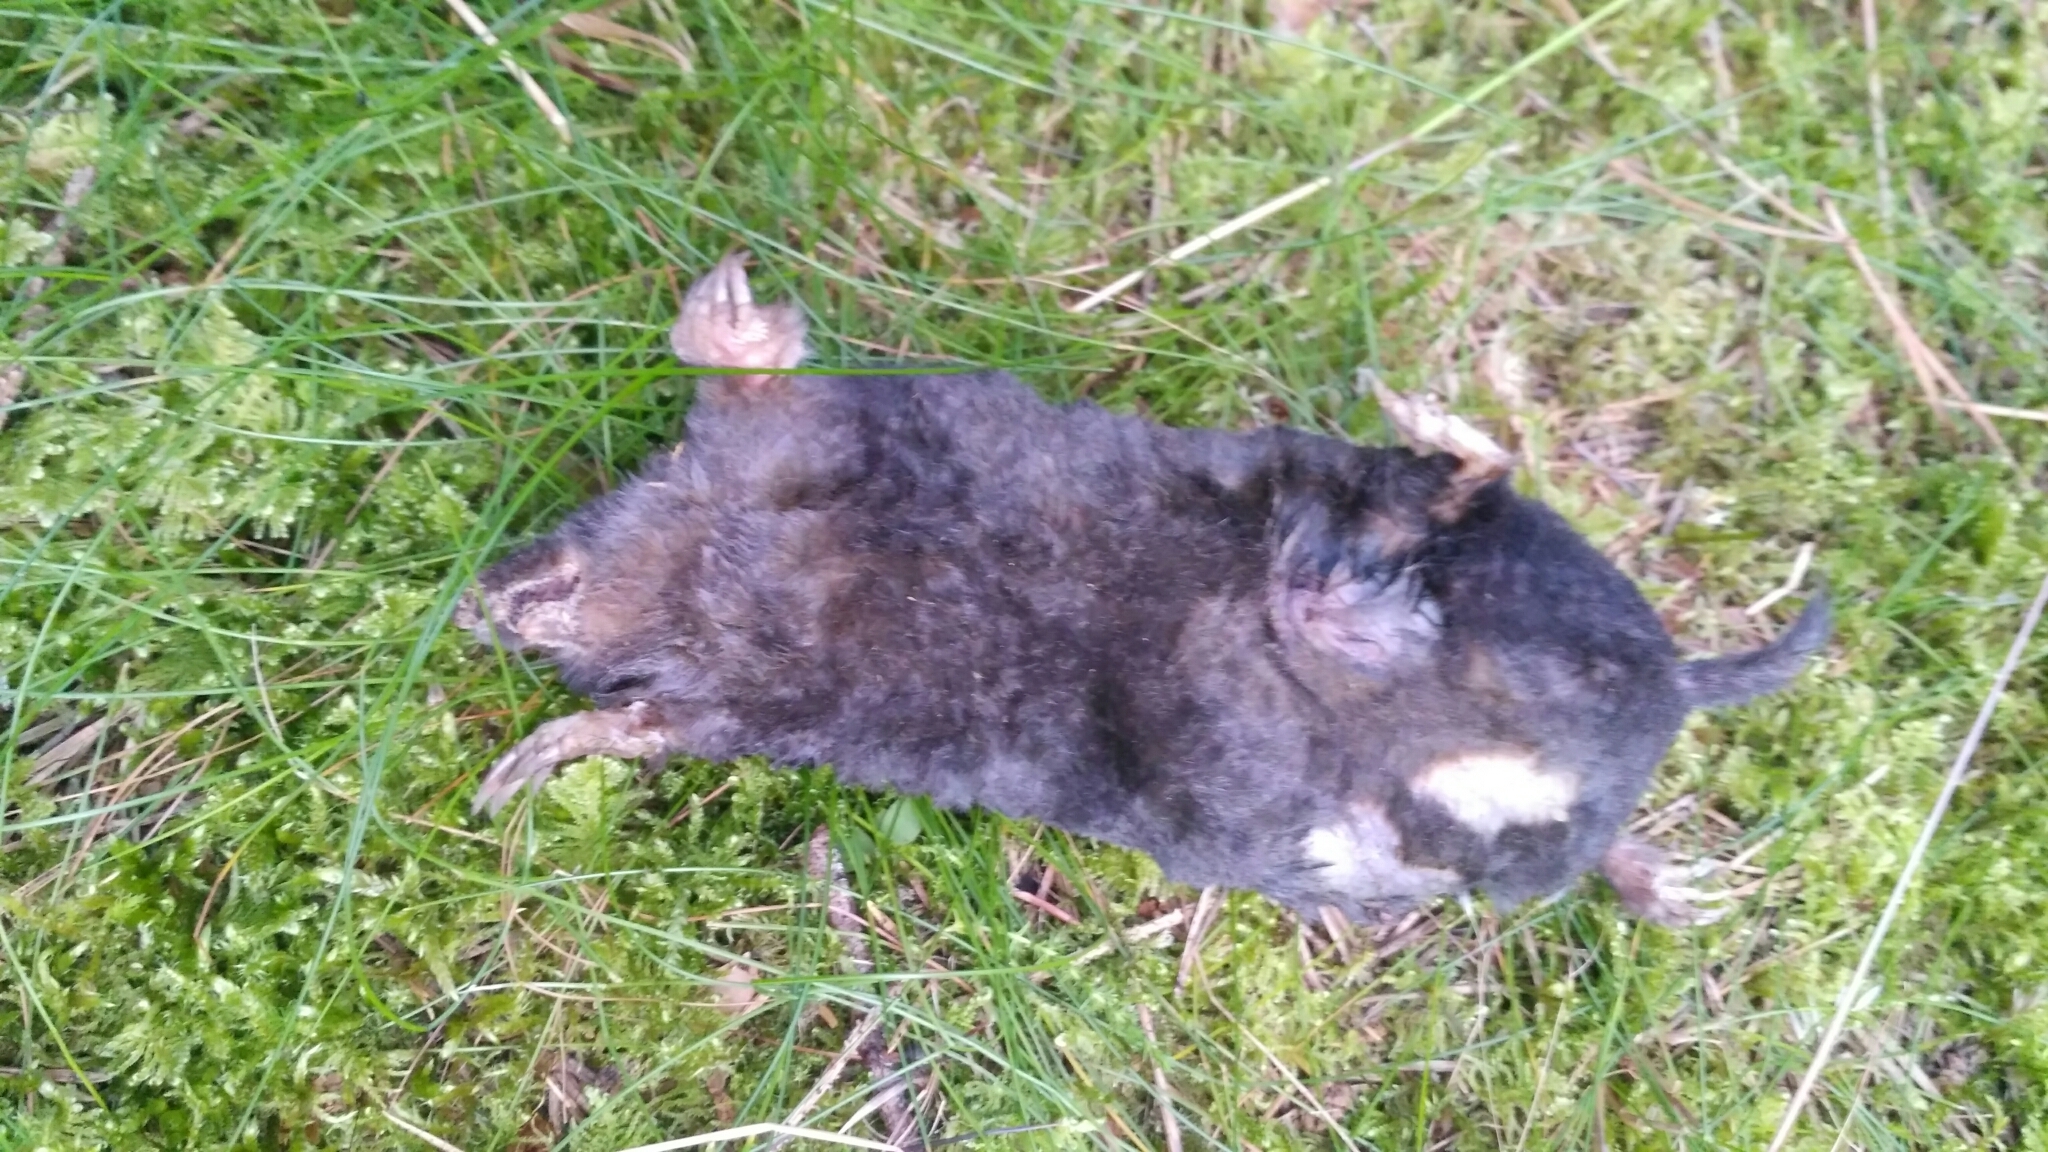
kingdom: Animalia
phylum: Chordata
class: Mammalia
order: Soricomorpha
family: Talpidae
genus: Talpa
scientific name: Talpa europaea
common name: European mole
